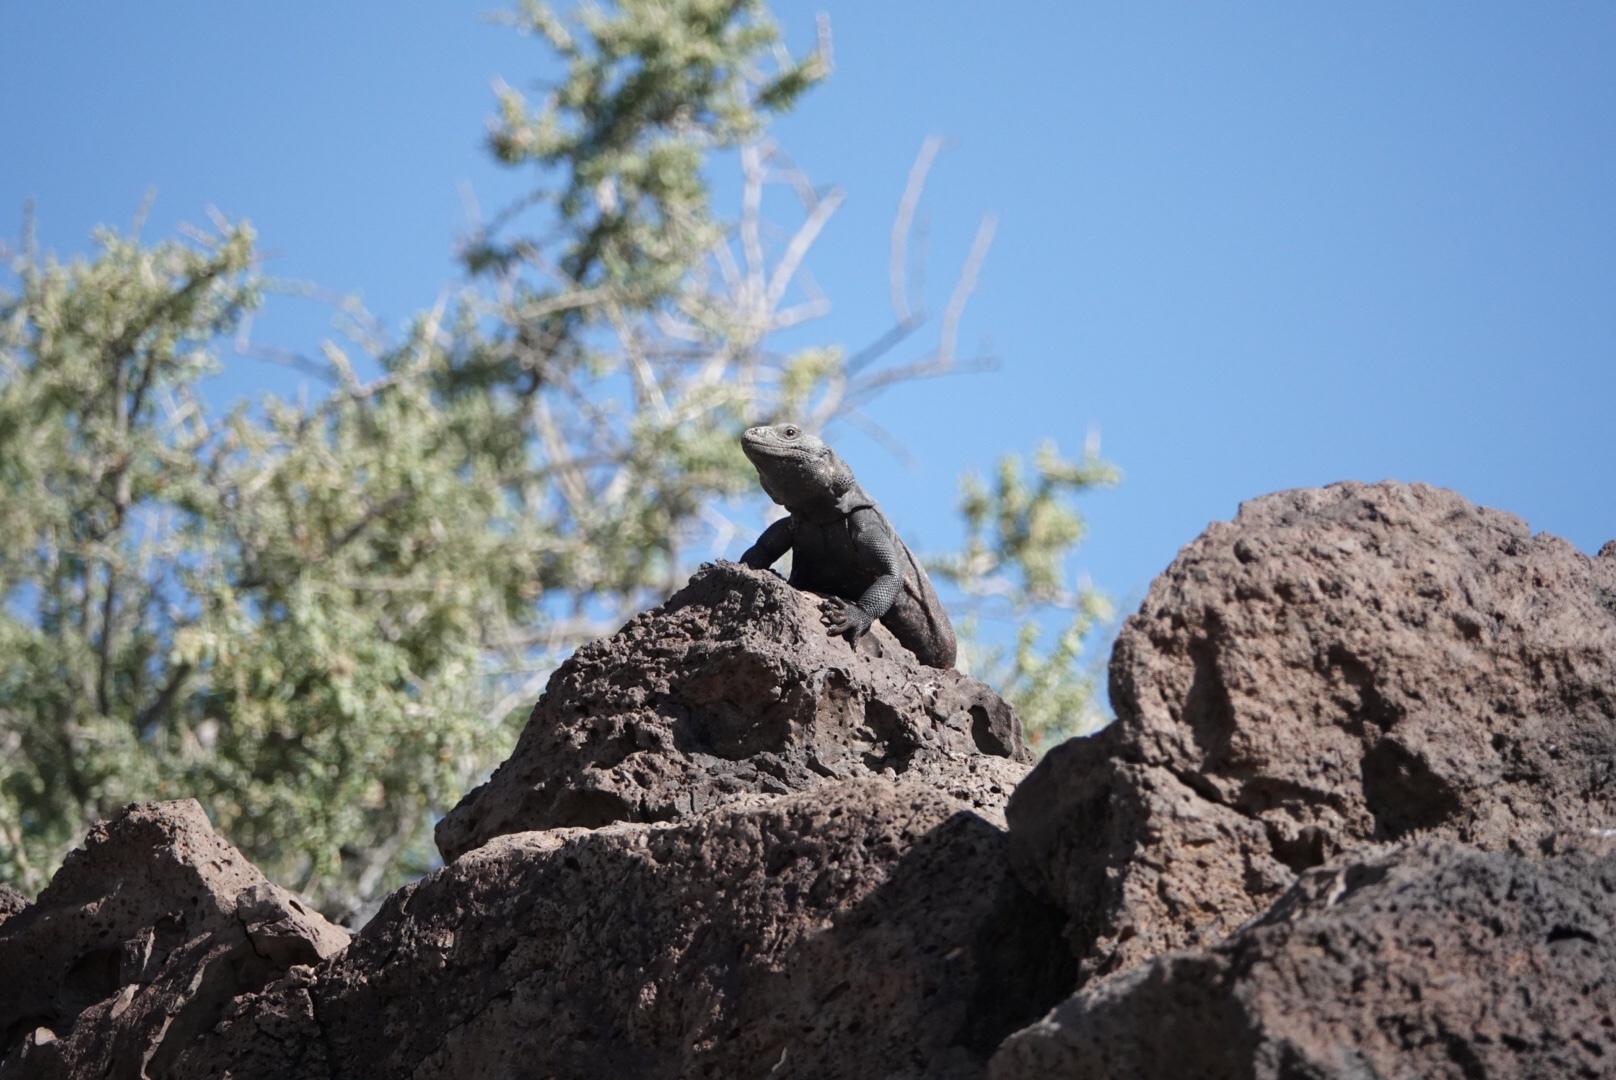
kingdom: Animalia
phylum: Chordata
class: Squamata
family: Iguanidae
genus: Sauromalus
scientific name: Sauromalus ater
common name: Northern chuckwalla
